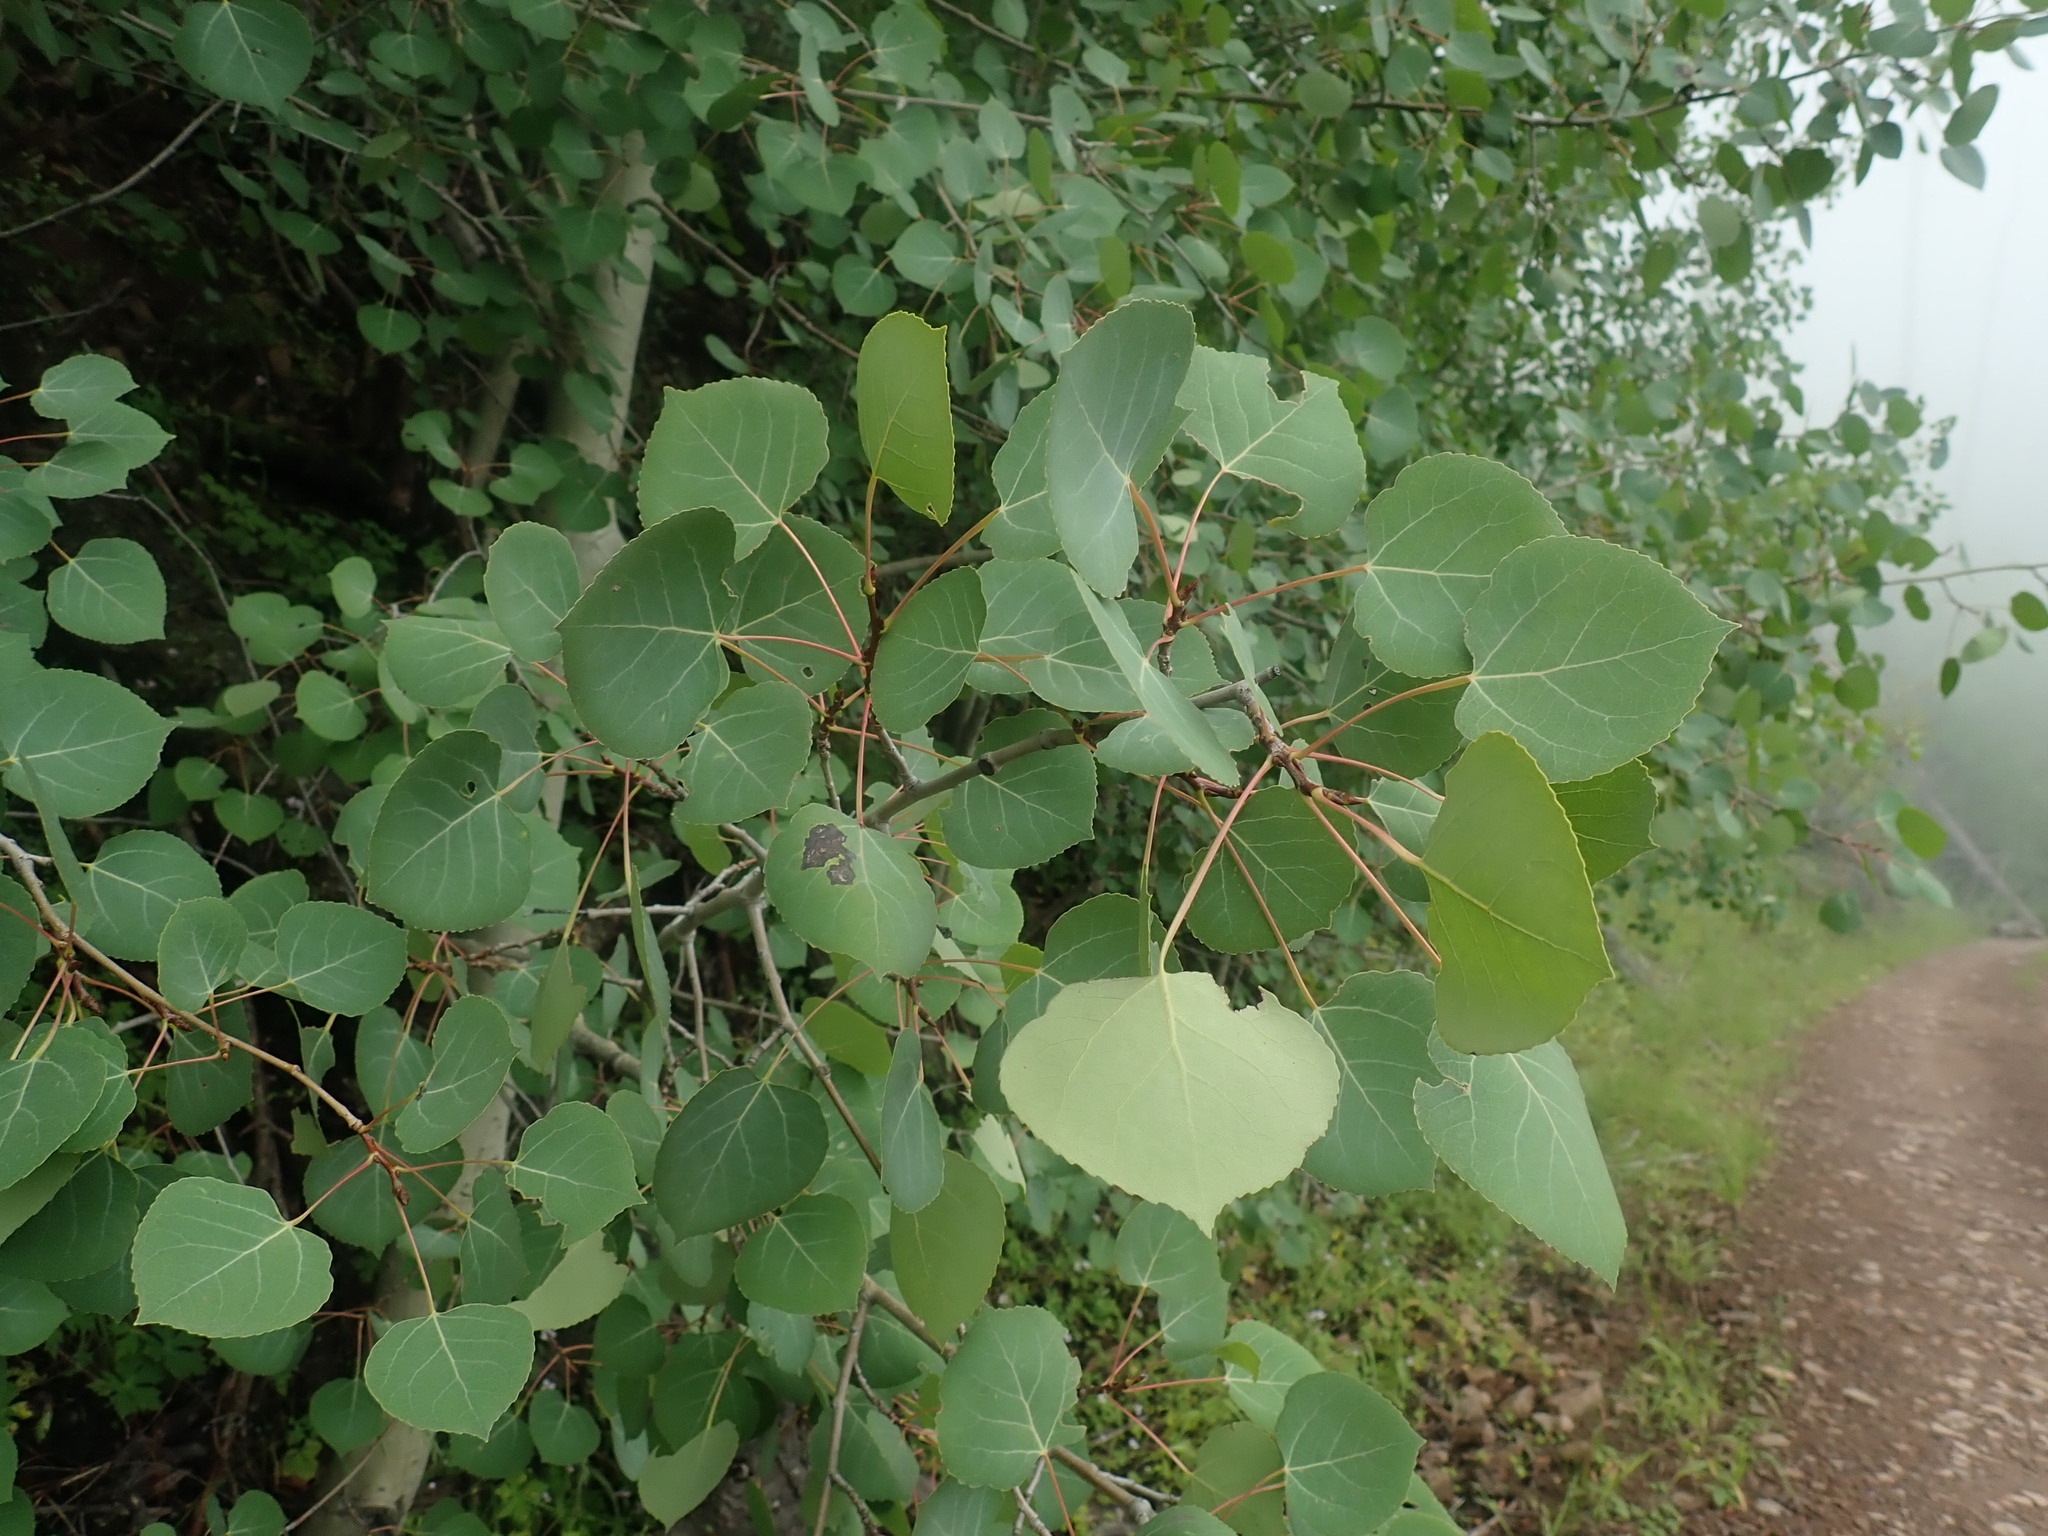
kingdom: Plantae
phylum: Tracheophyta
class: Magnoliopsida
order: Malpighiales
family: Salicaceae
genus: Populus
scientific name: Populus tremuloides
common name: Quaking aspen
